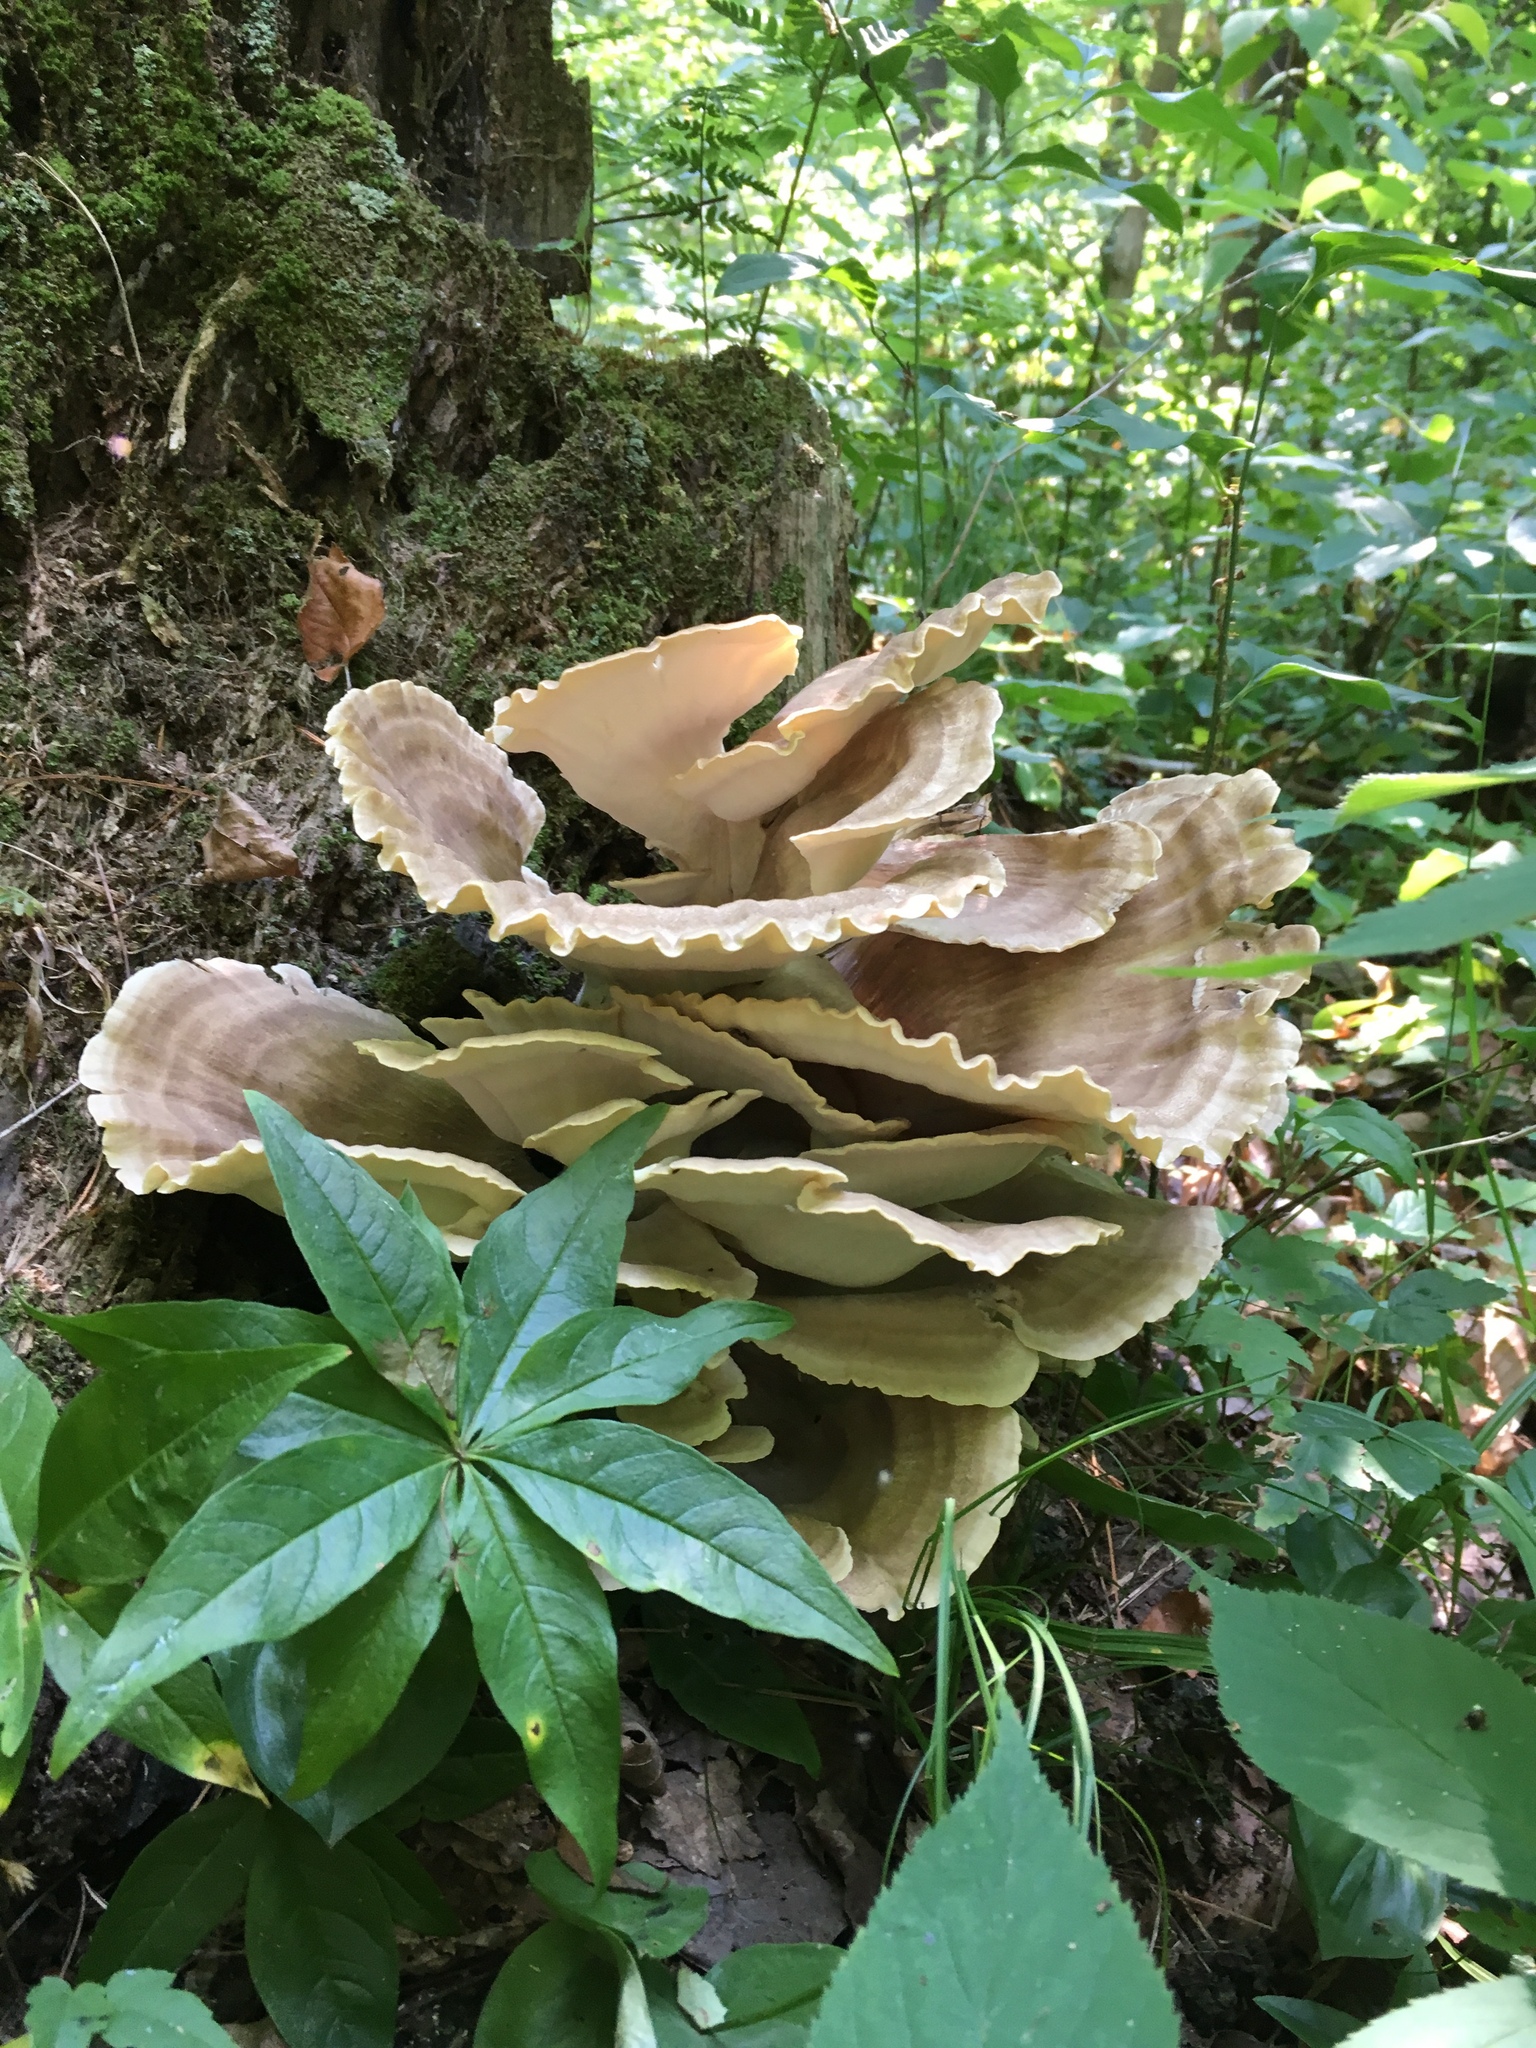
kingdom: Fungi
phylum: Basidiomycota
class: Agaricomycetes
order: Polyporales
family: Meripilaceae
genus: Meripilus
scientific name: Meripilus sumstinei
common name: Black-staining polypore
